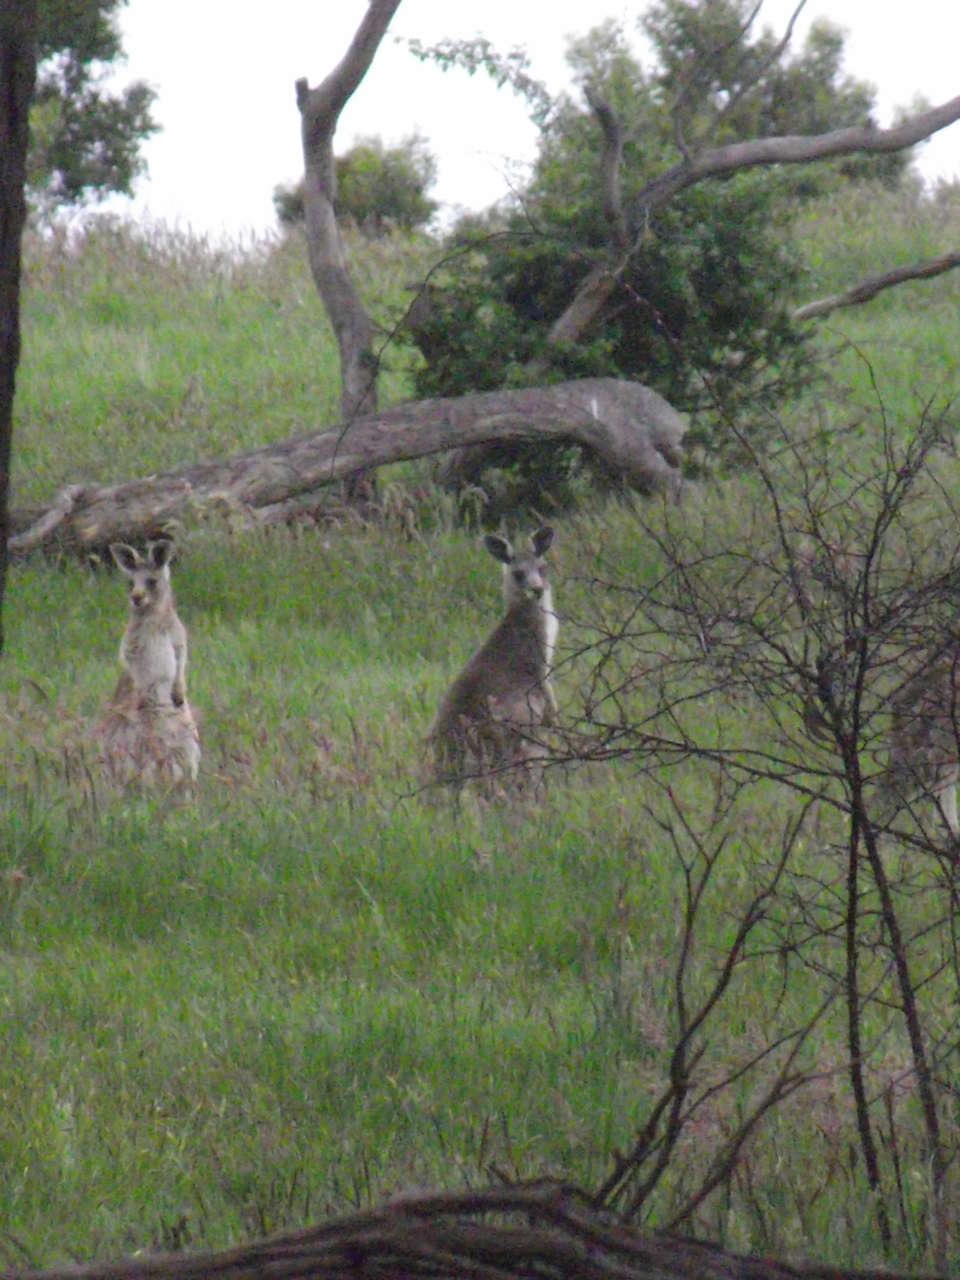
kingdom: Animalia
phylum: Chordata
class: Mammalia
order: Diprotodontia
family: Macropodidae
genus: Macropus
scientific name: Macropus giganteus
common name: Eastern grey kangaroo
